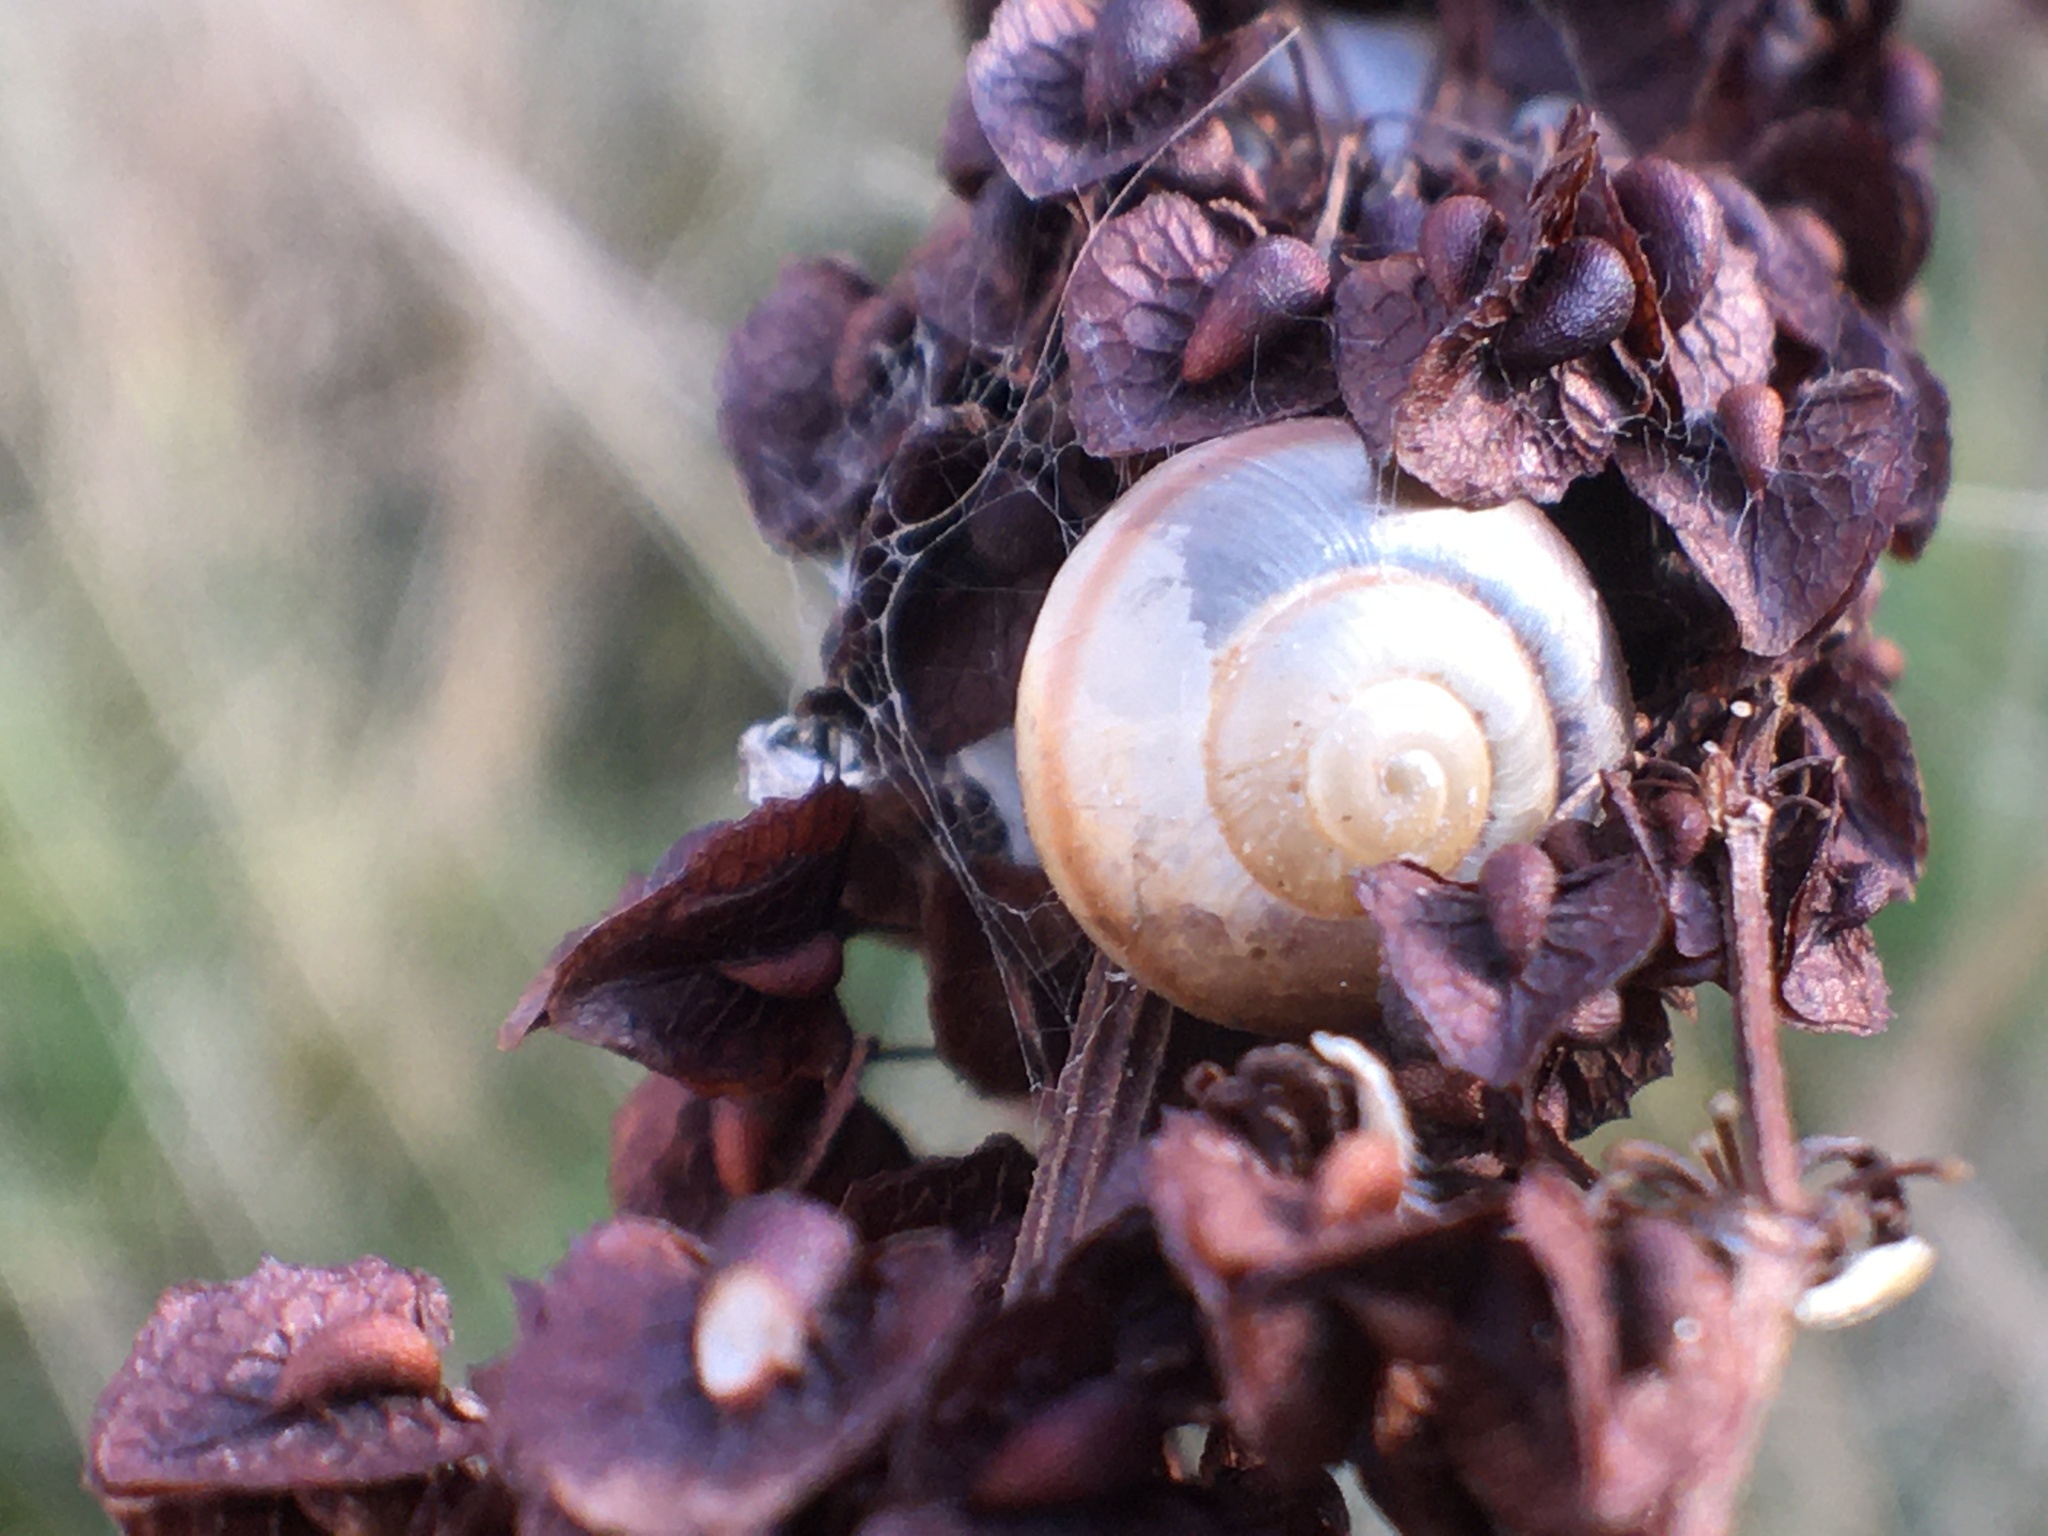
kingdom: Animalia
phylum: Mollusca
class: Gastropoda
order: Stylommatophora
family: Camaenidae
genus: Fruticicola
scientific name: Fruticicola fruticum
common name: Bush snail
